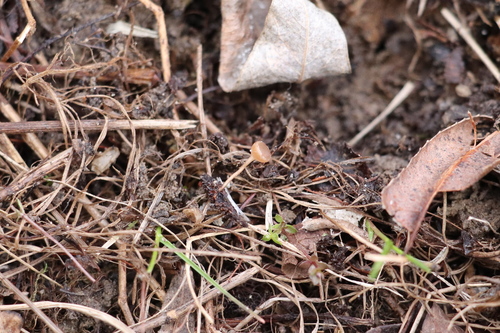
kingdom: Fungi
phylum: Ascomycota
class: Leotiomycetes
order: Helotiales
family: Sclerotiniaceae
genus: Ciboria
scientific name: Ciboria caucus
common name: Alder goblet
